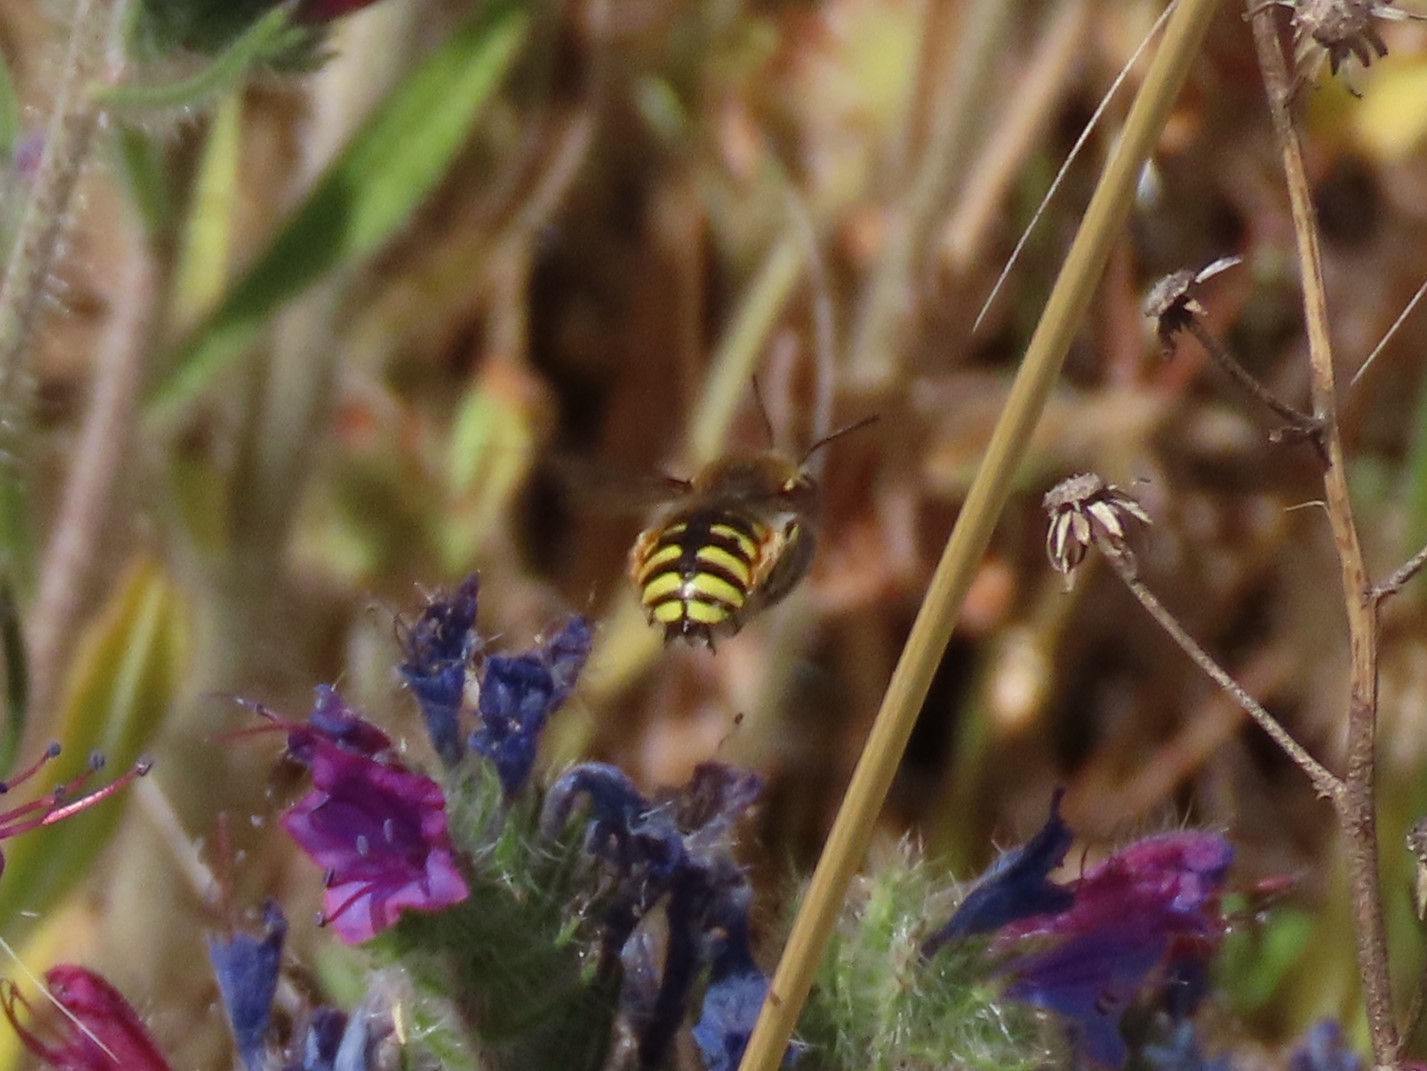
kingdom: Animalia
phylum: Arthropoda
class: Insecta
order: Hymenoptera
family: Megachilidae
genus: Anthidium
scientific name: Anthidium manicatum
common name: Wool carder bee
